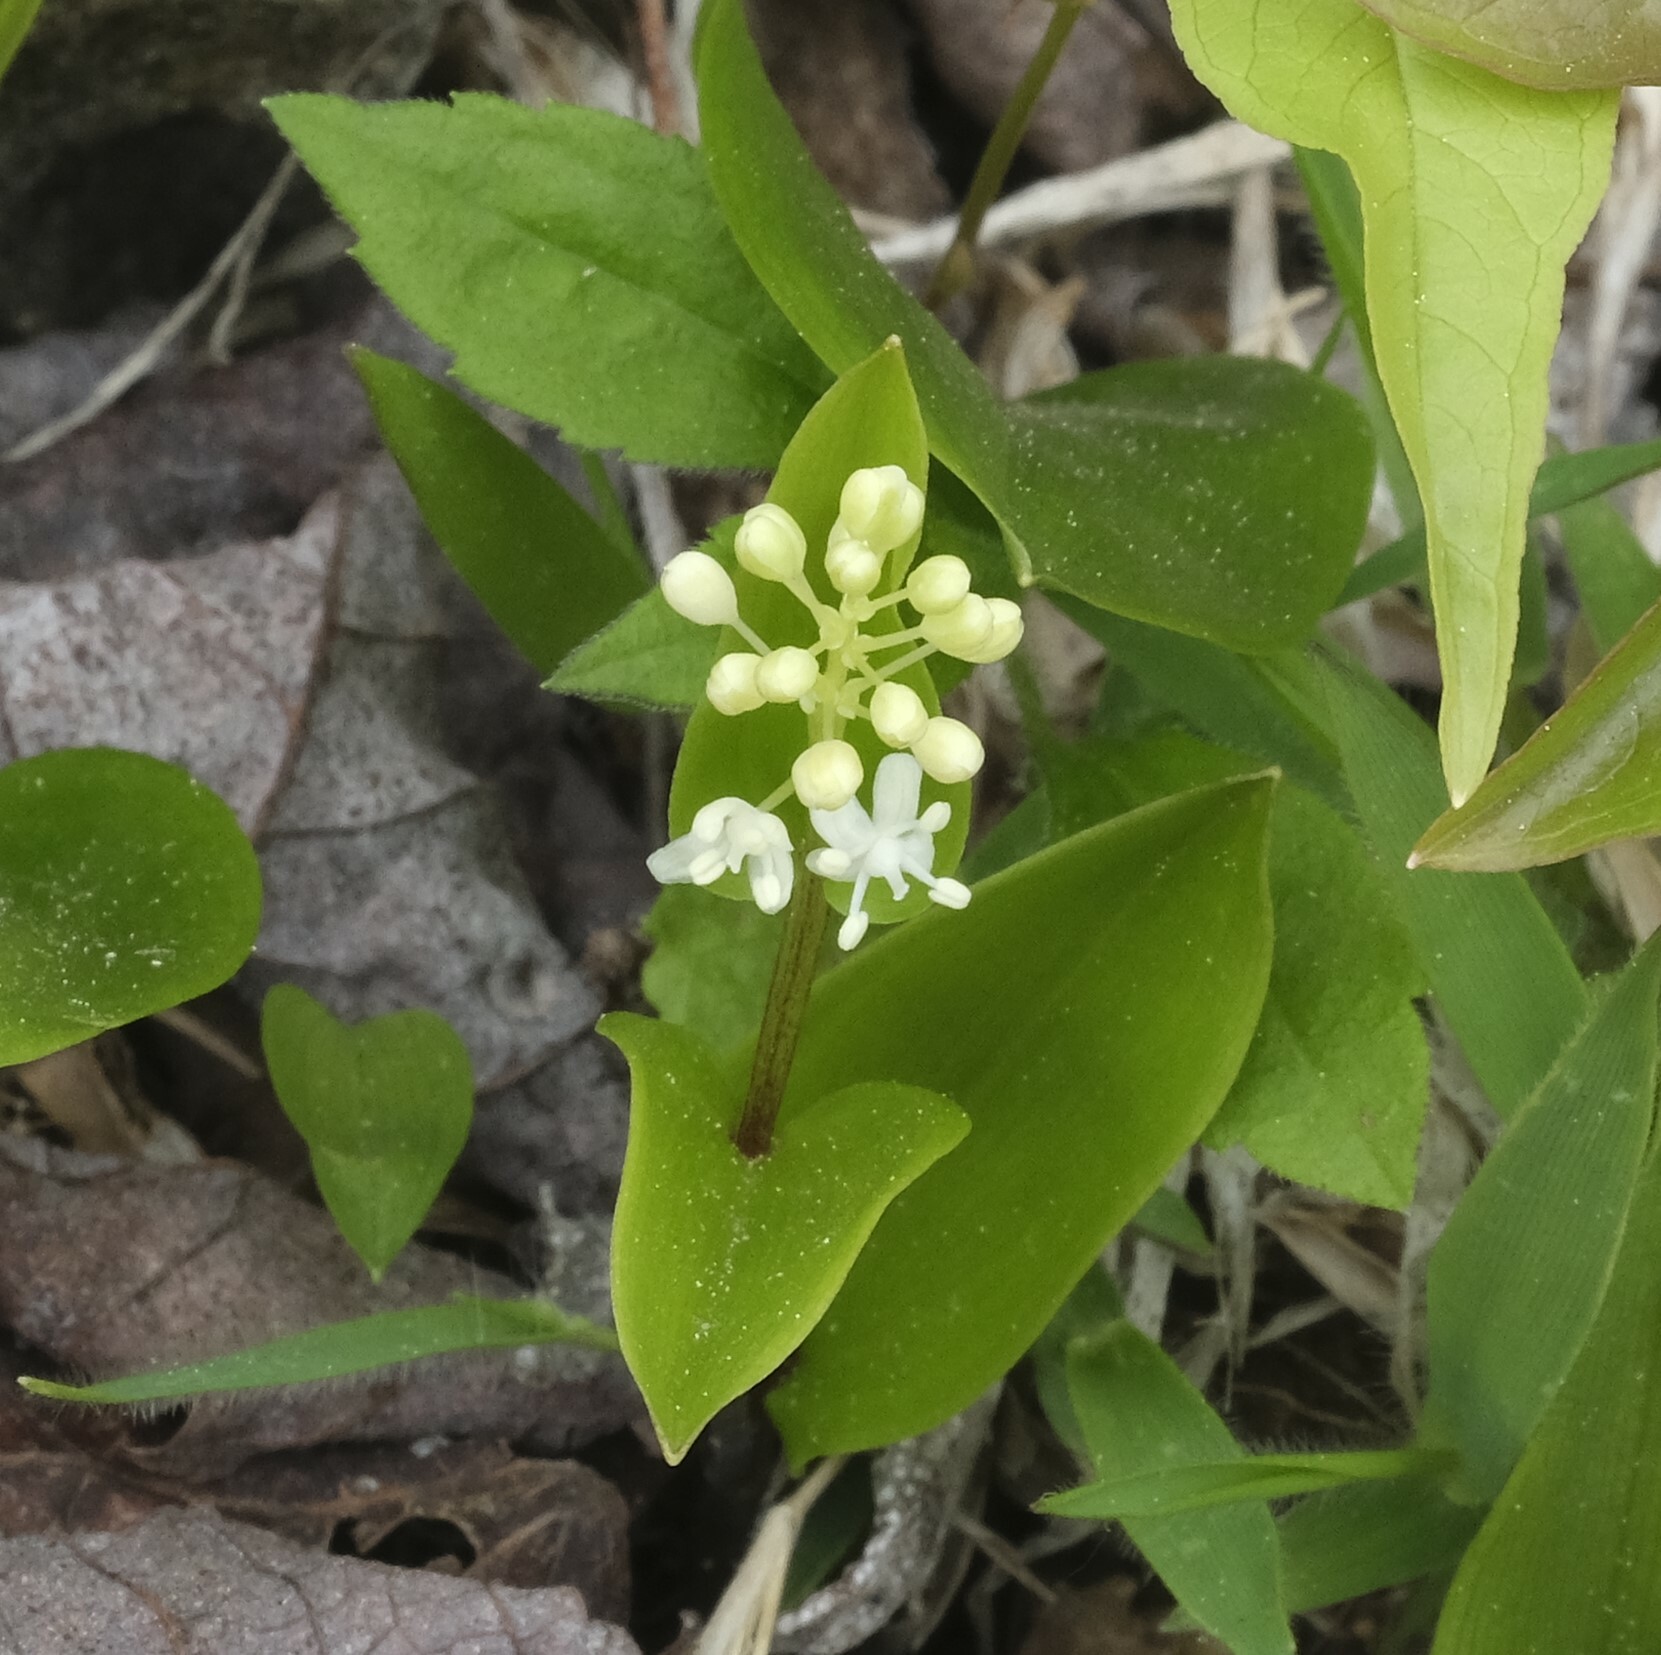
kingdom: Plantae
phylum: Tracheophyta
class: Liliopsida
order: Asparagales
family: Asparagaceae
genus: Maianthemum
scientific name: Maianthemum canadense
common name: False lily-of-the-valley
